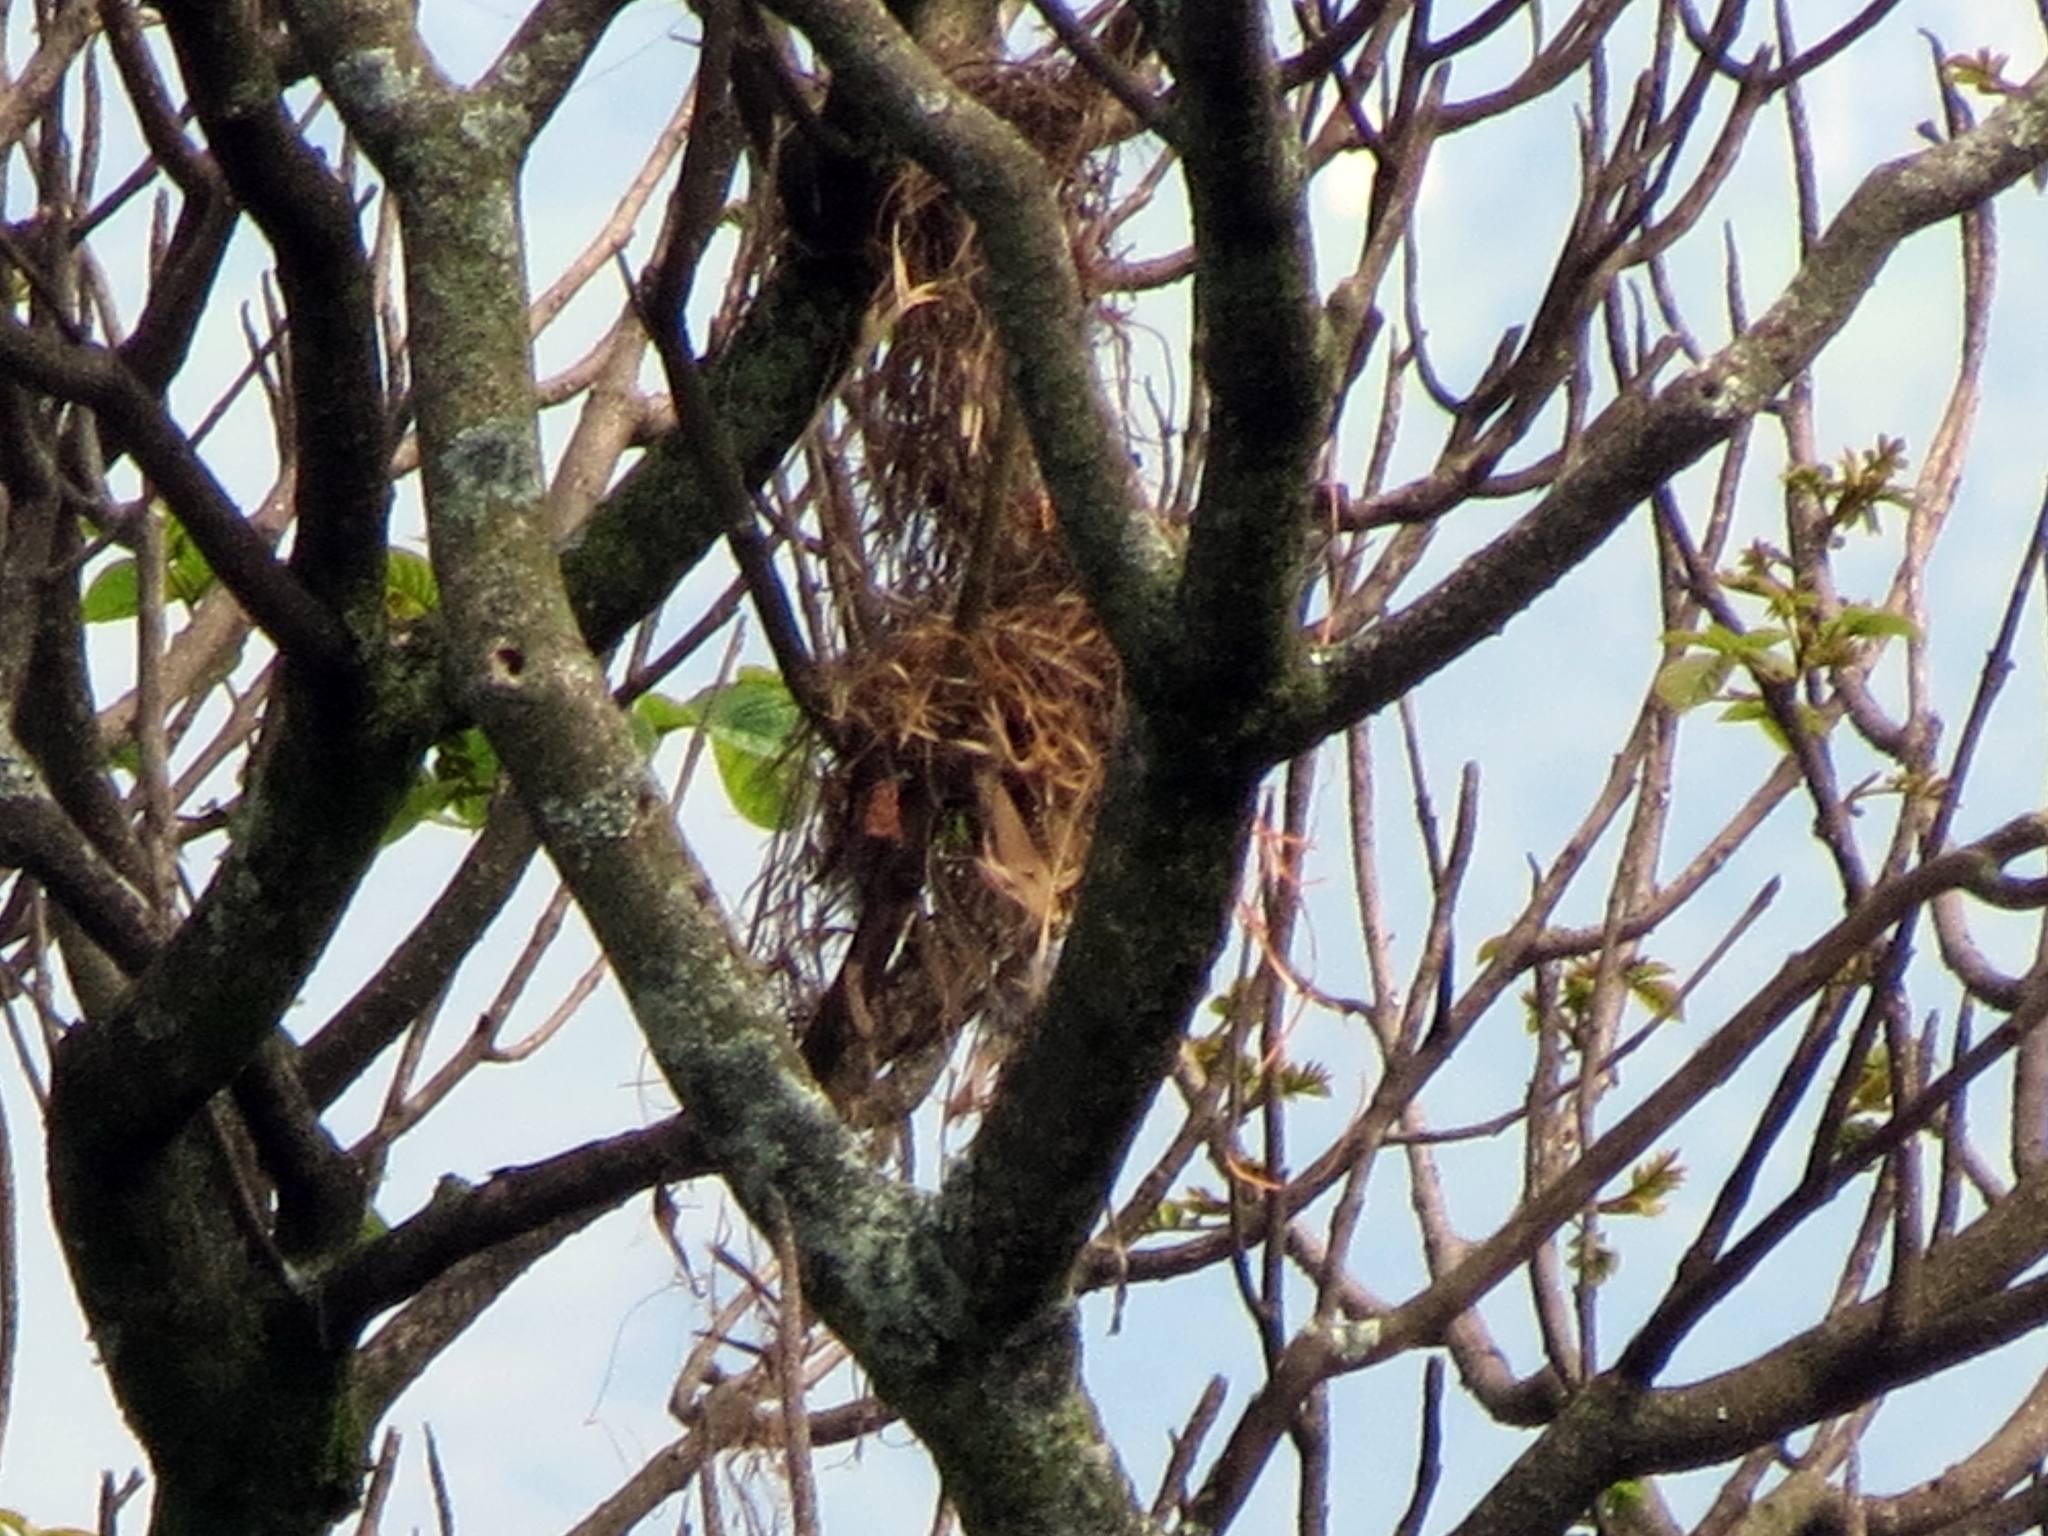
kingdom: Animalia
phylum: Chordata
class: Aves
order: Passeriformes
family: Tyrannidae
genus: Pitangus
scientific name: Pitangus sulphuratus
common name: Great kiskadee
